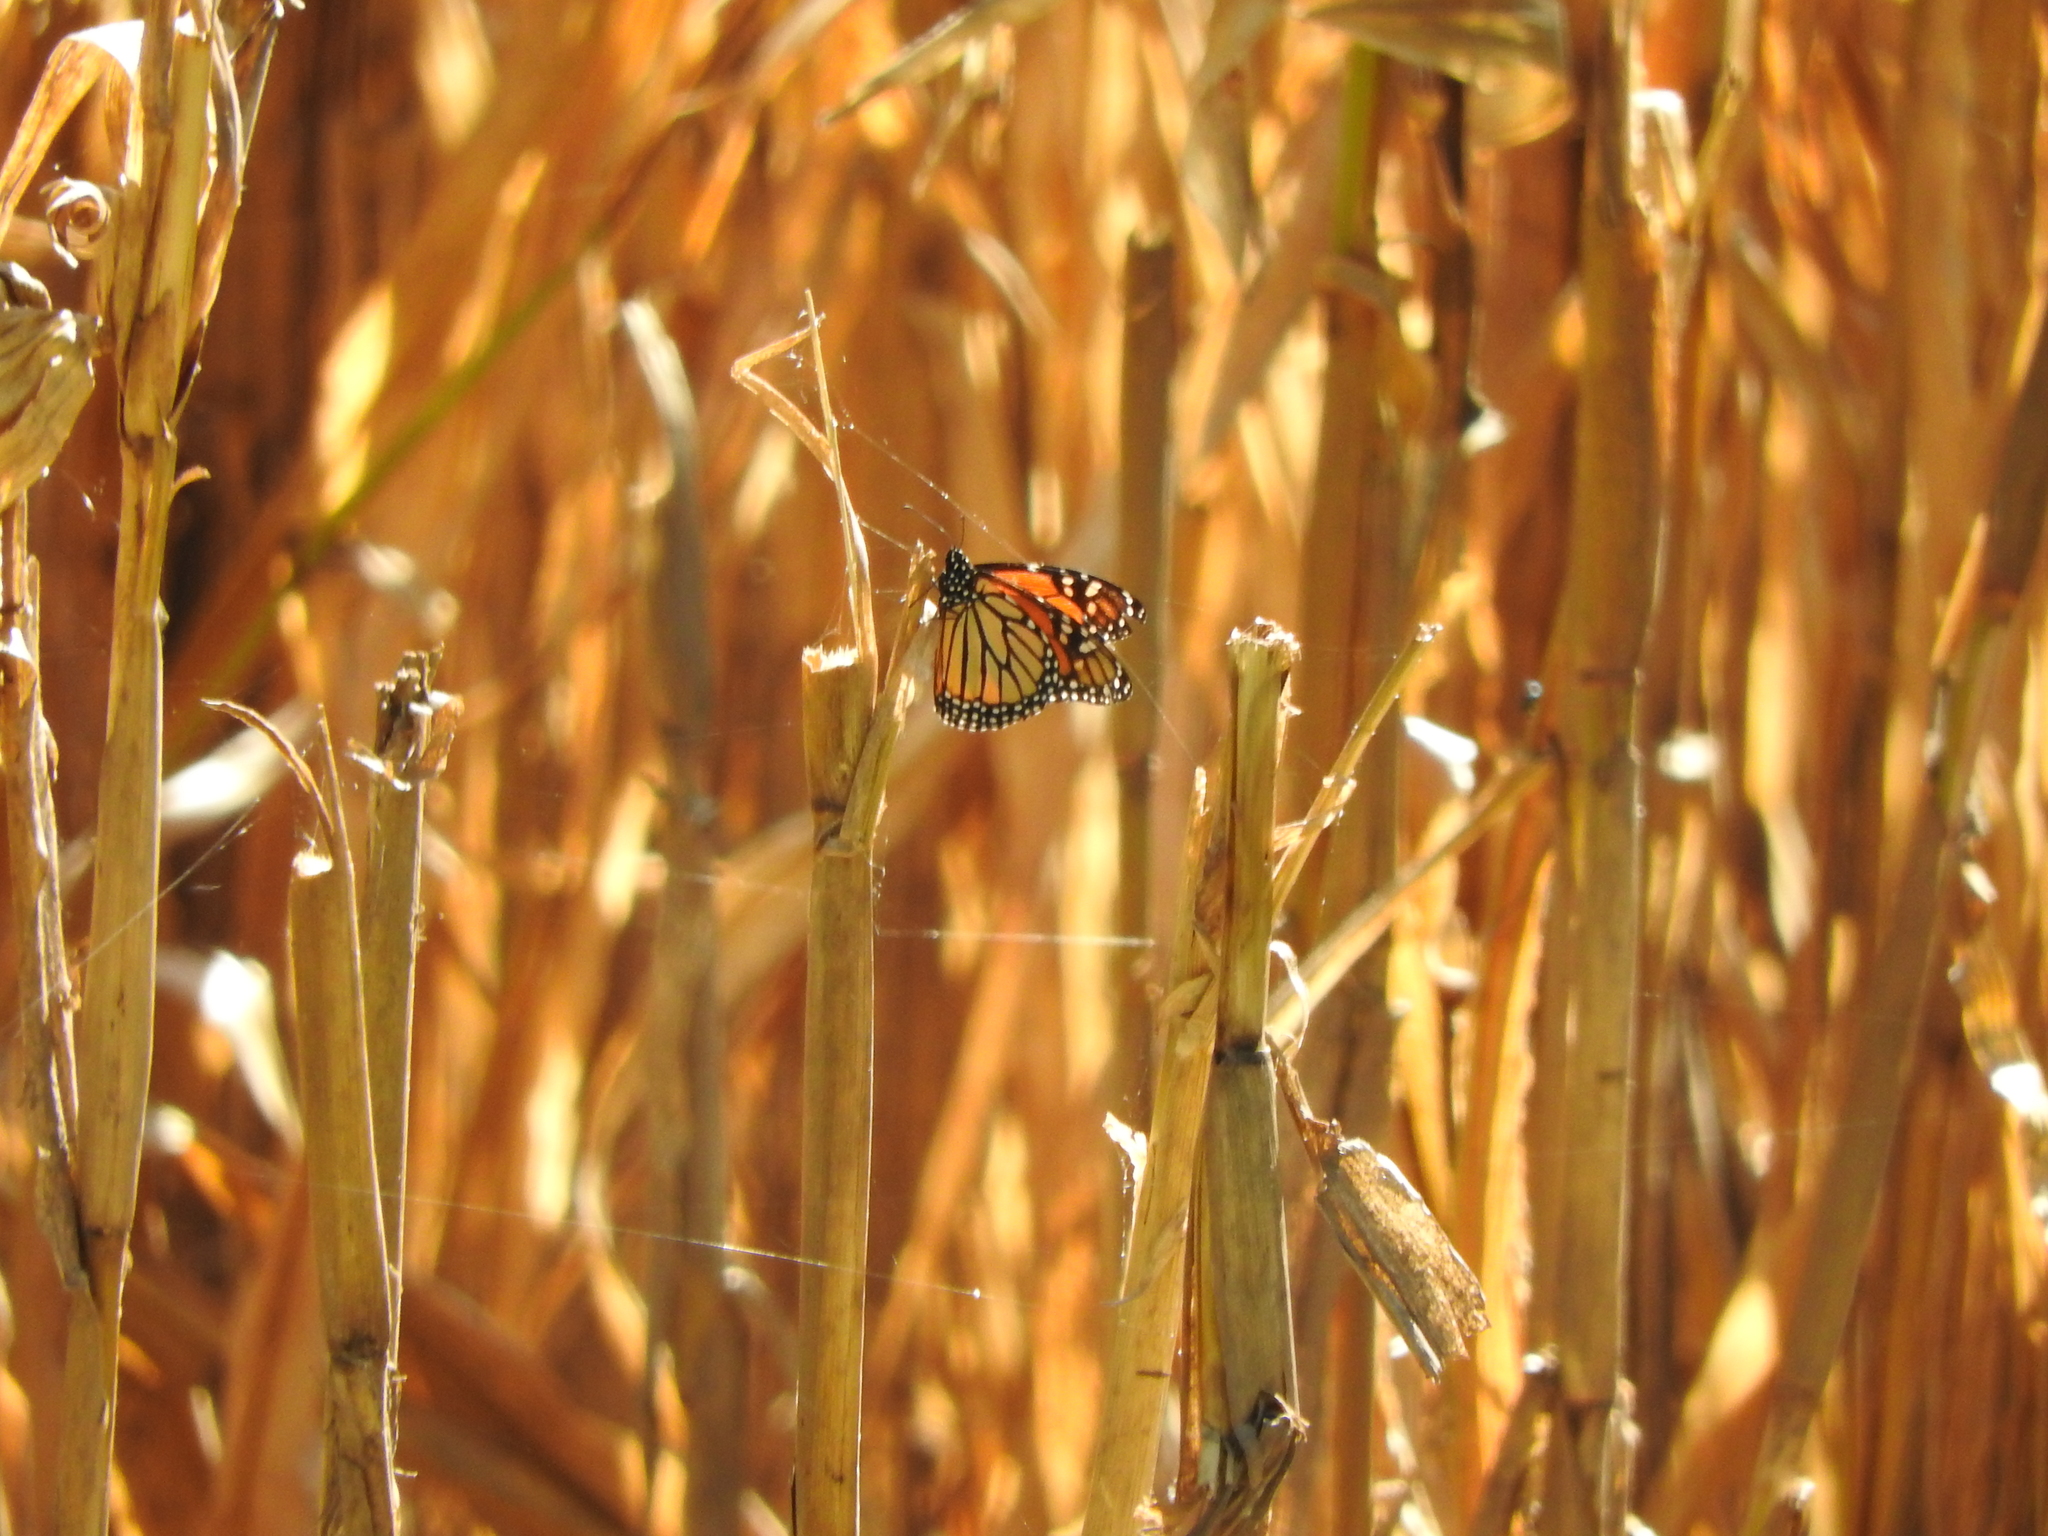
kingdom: Animalia
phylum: Arthropoda
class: Insecta
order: Lepidoptera
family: Nymphalidae
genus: Danaus
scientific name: Danaus plexippus
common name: Monarch
